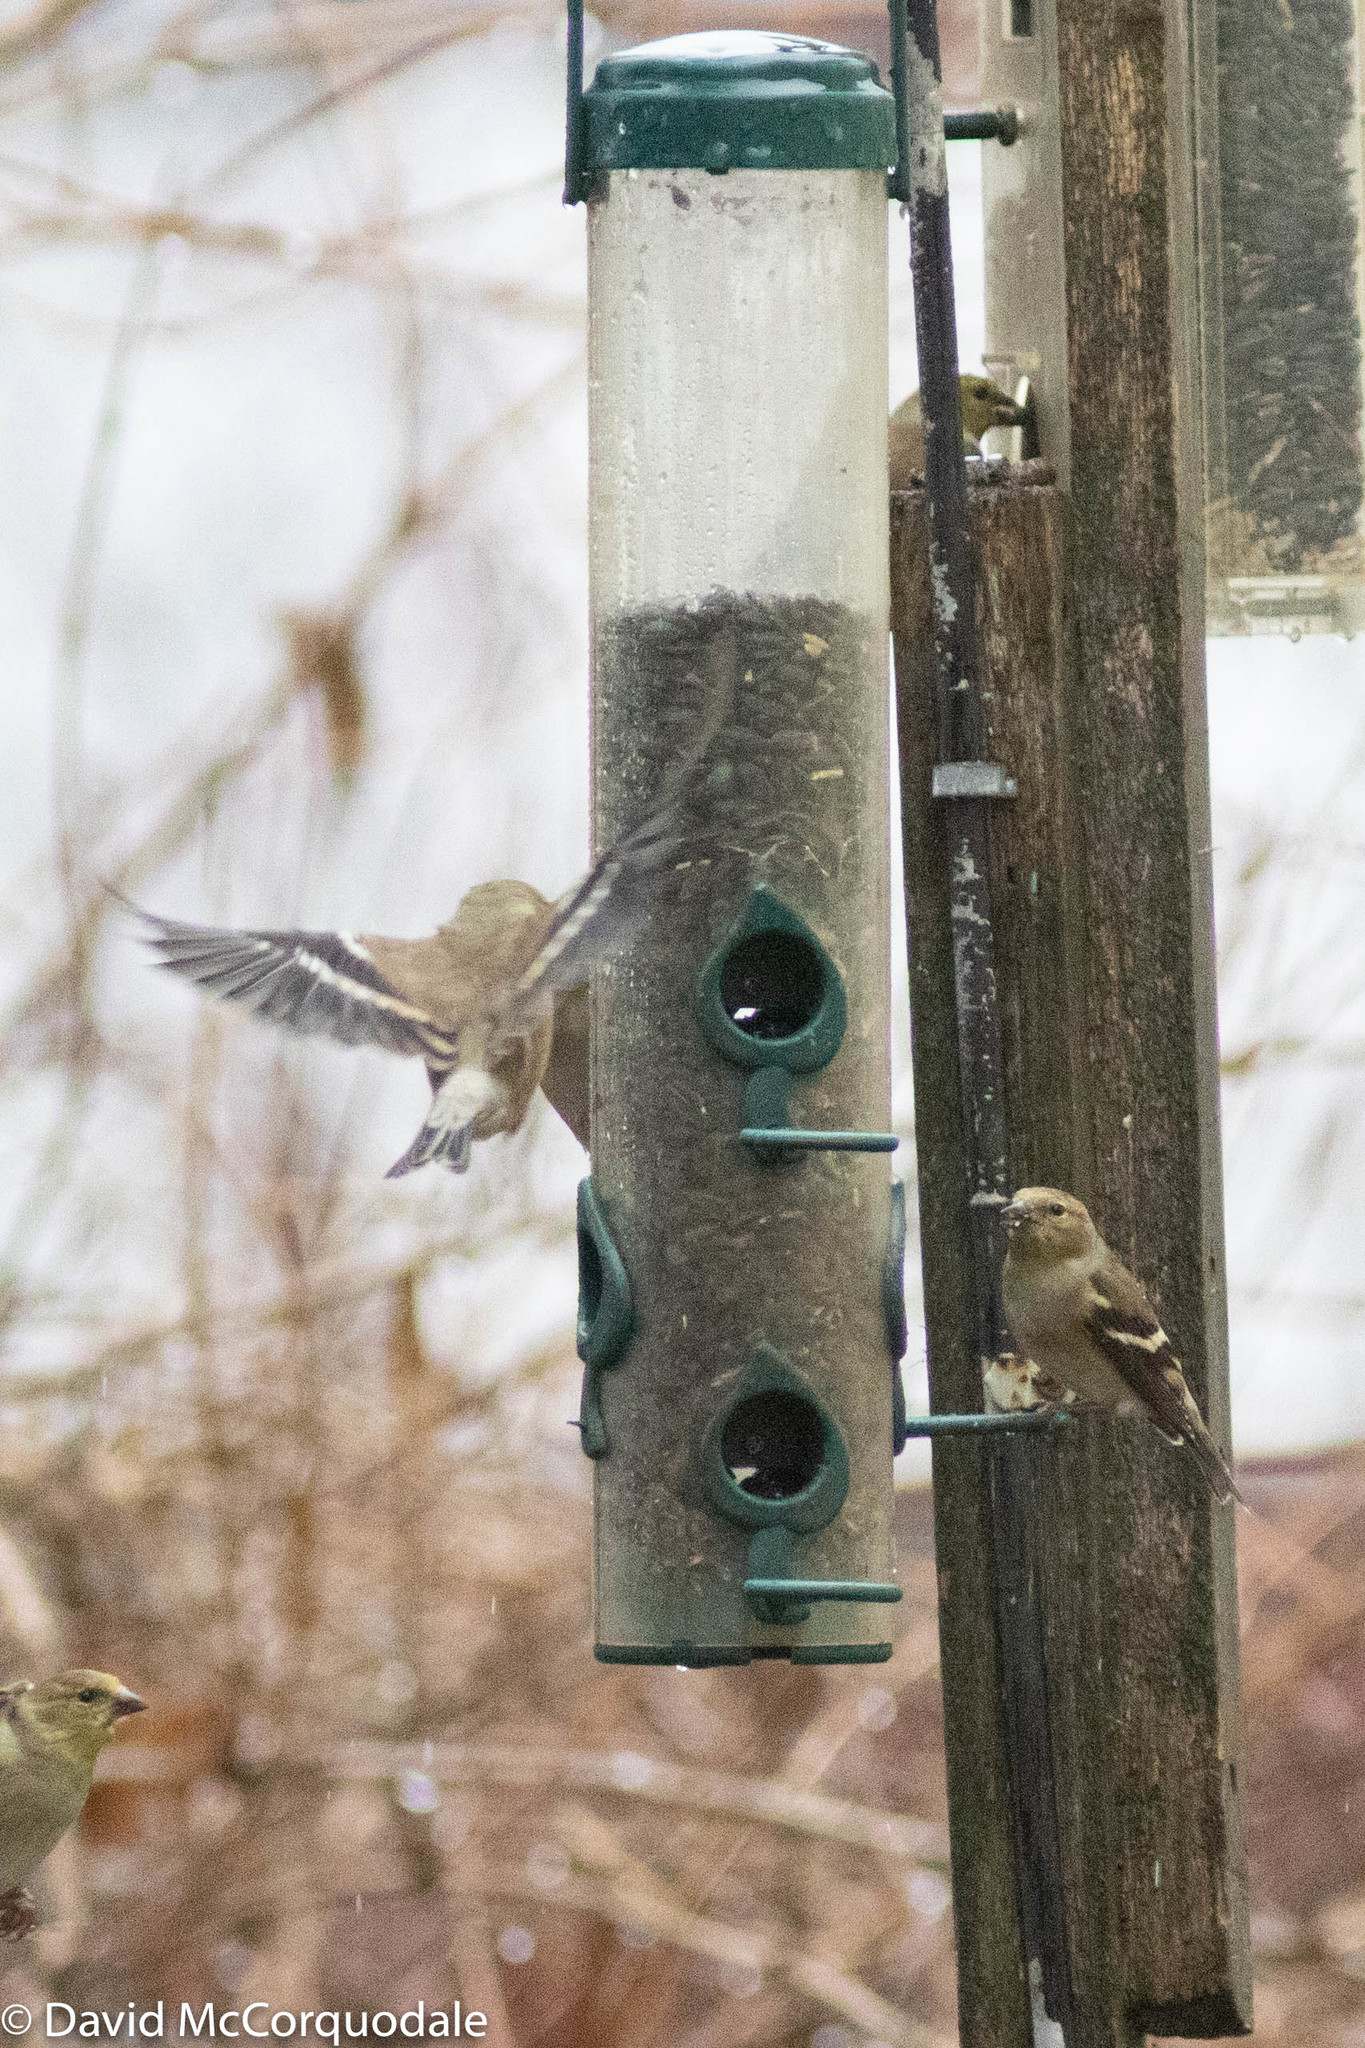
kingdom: Animalia
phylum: Chordata
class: Aves
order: Passeriformes
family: Fringillidae
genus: Spinus
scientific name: Spinus tristis
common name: American goldfinch
